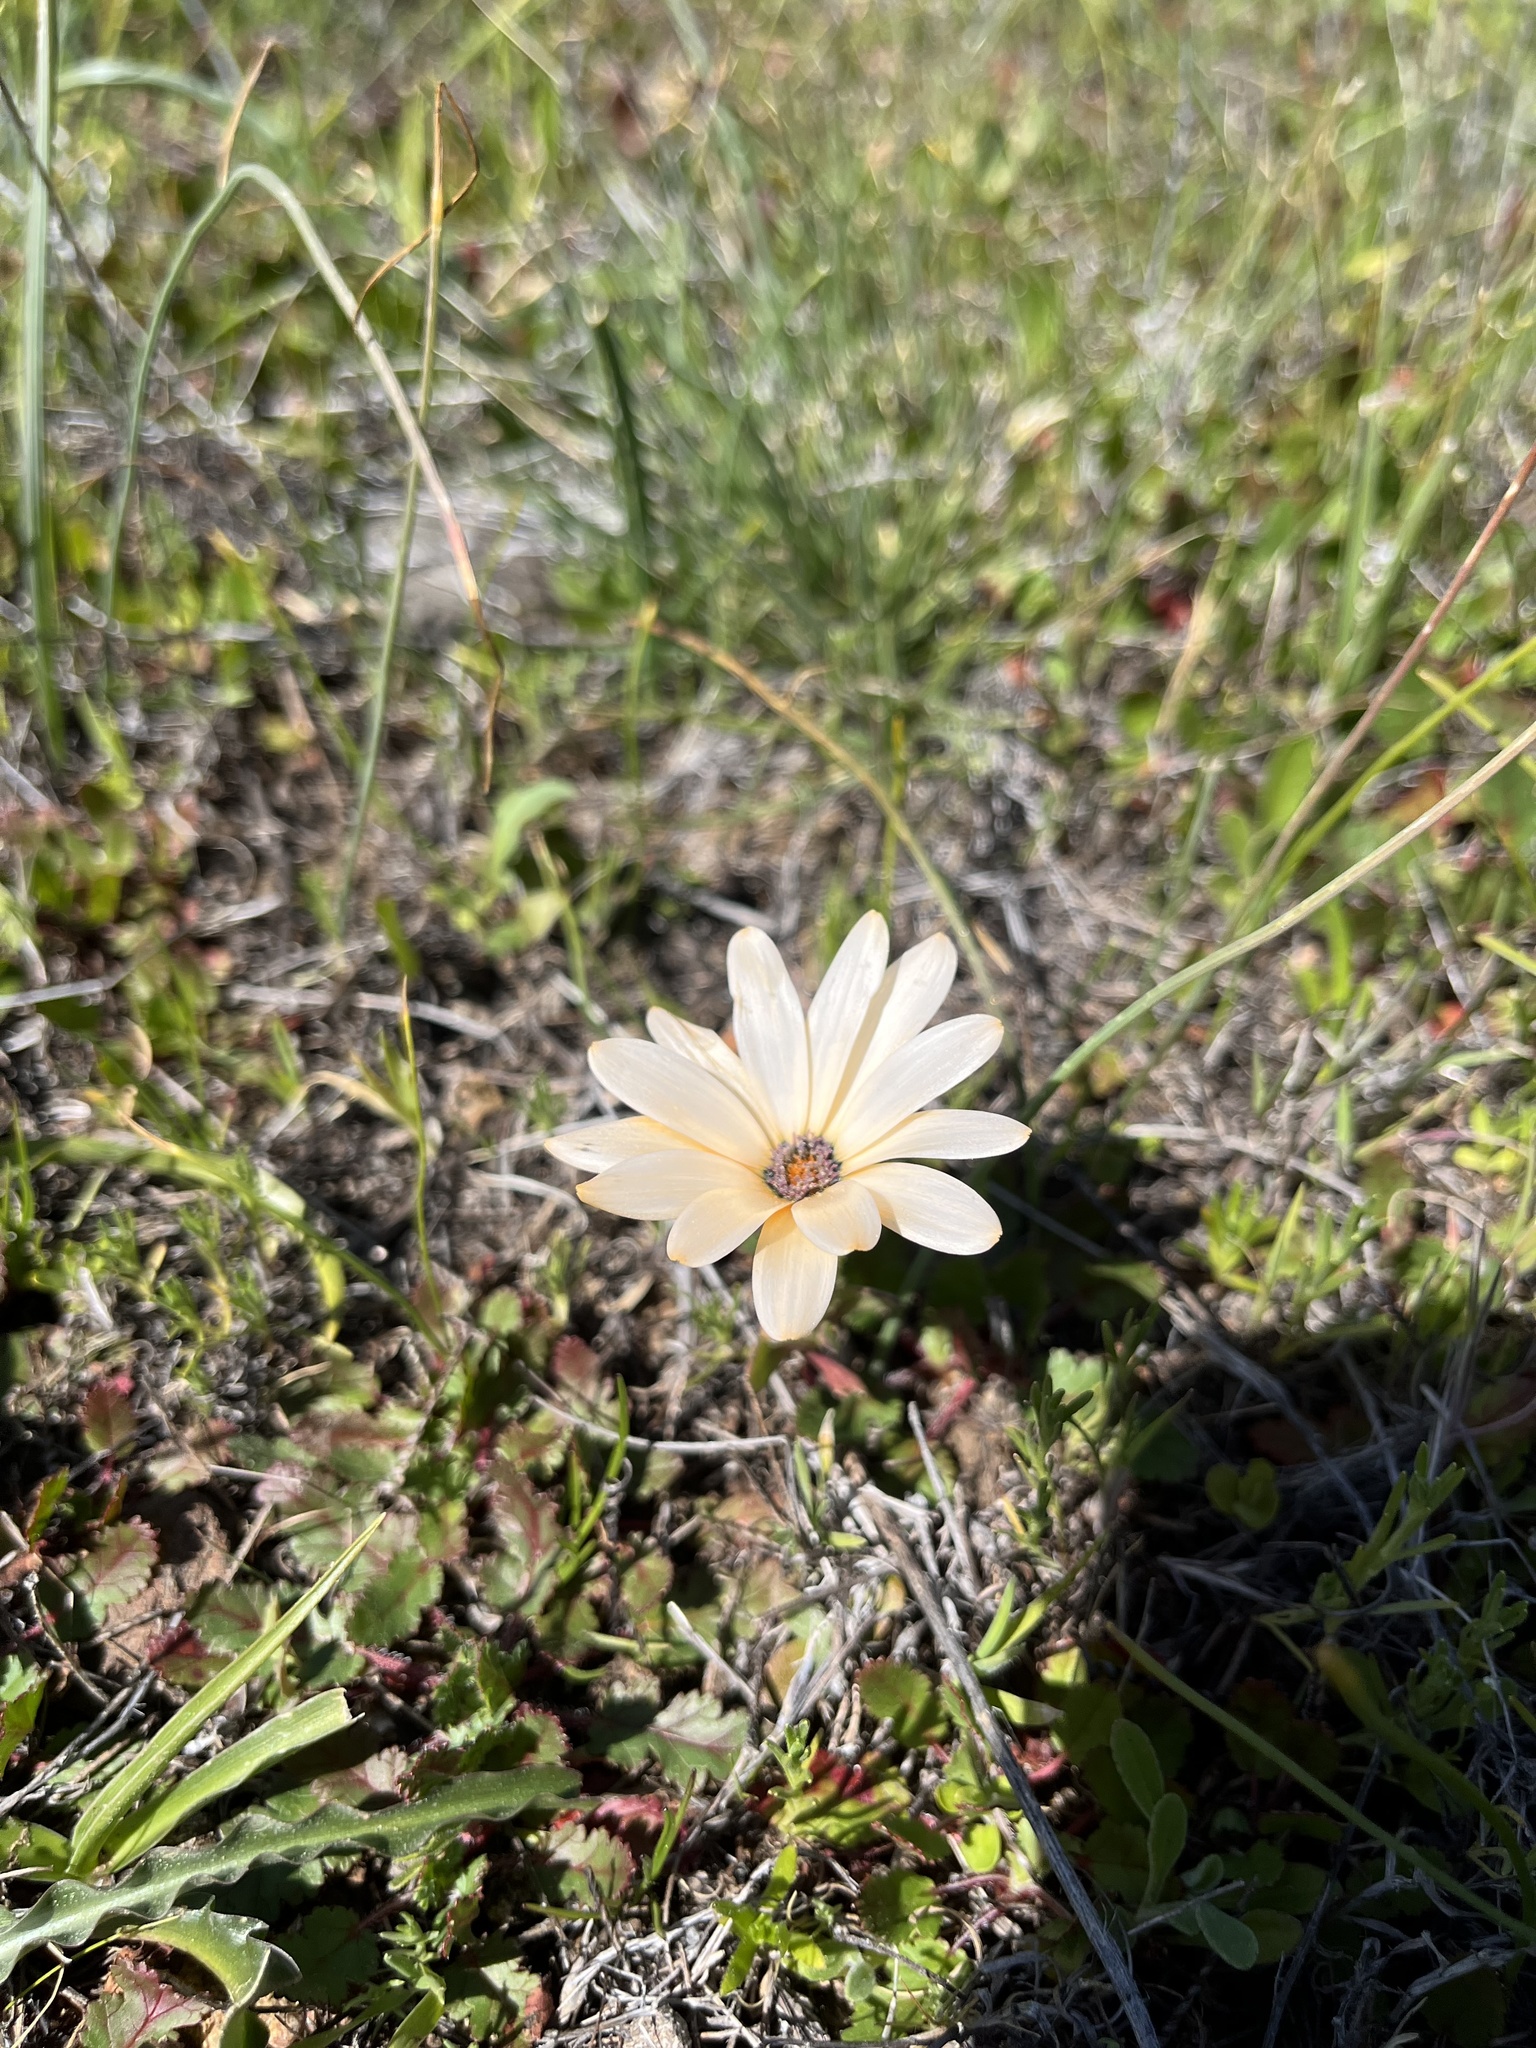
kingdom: Plantae
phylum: Tracheophyta
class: Magnoliopsida
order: Asterales
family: Asteraceae
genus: Dimorphotheca
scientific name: Dimorphotheca sinuata
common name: Glandular cape marigold
